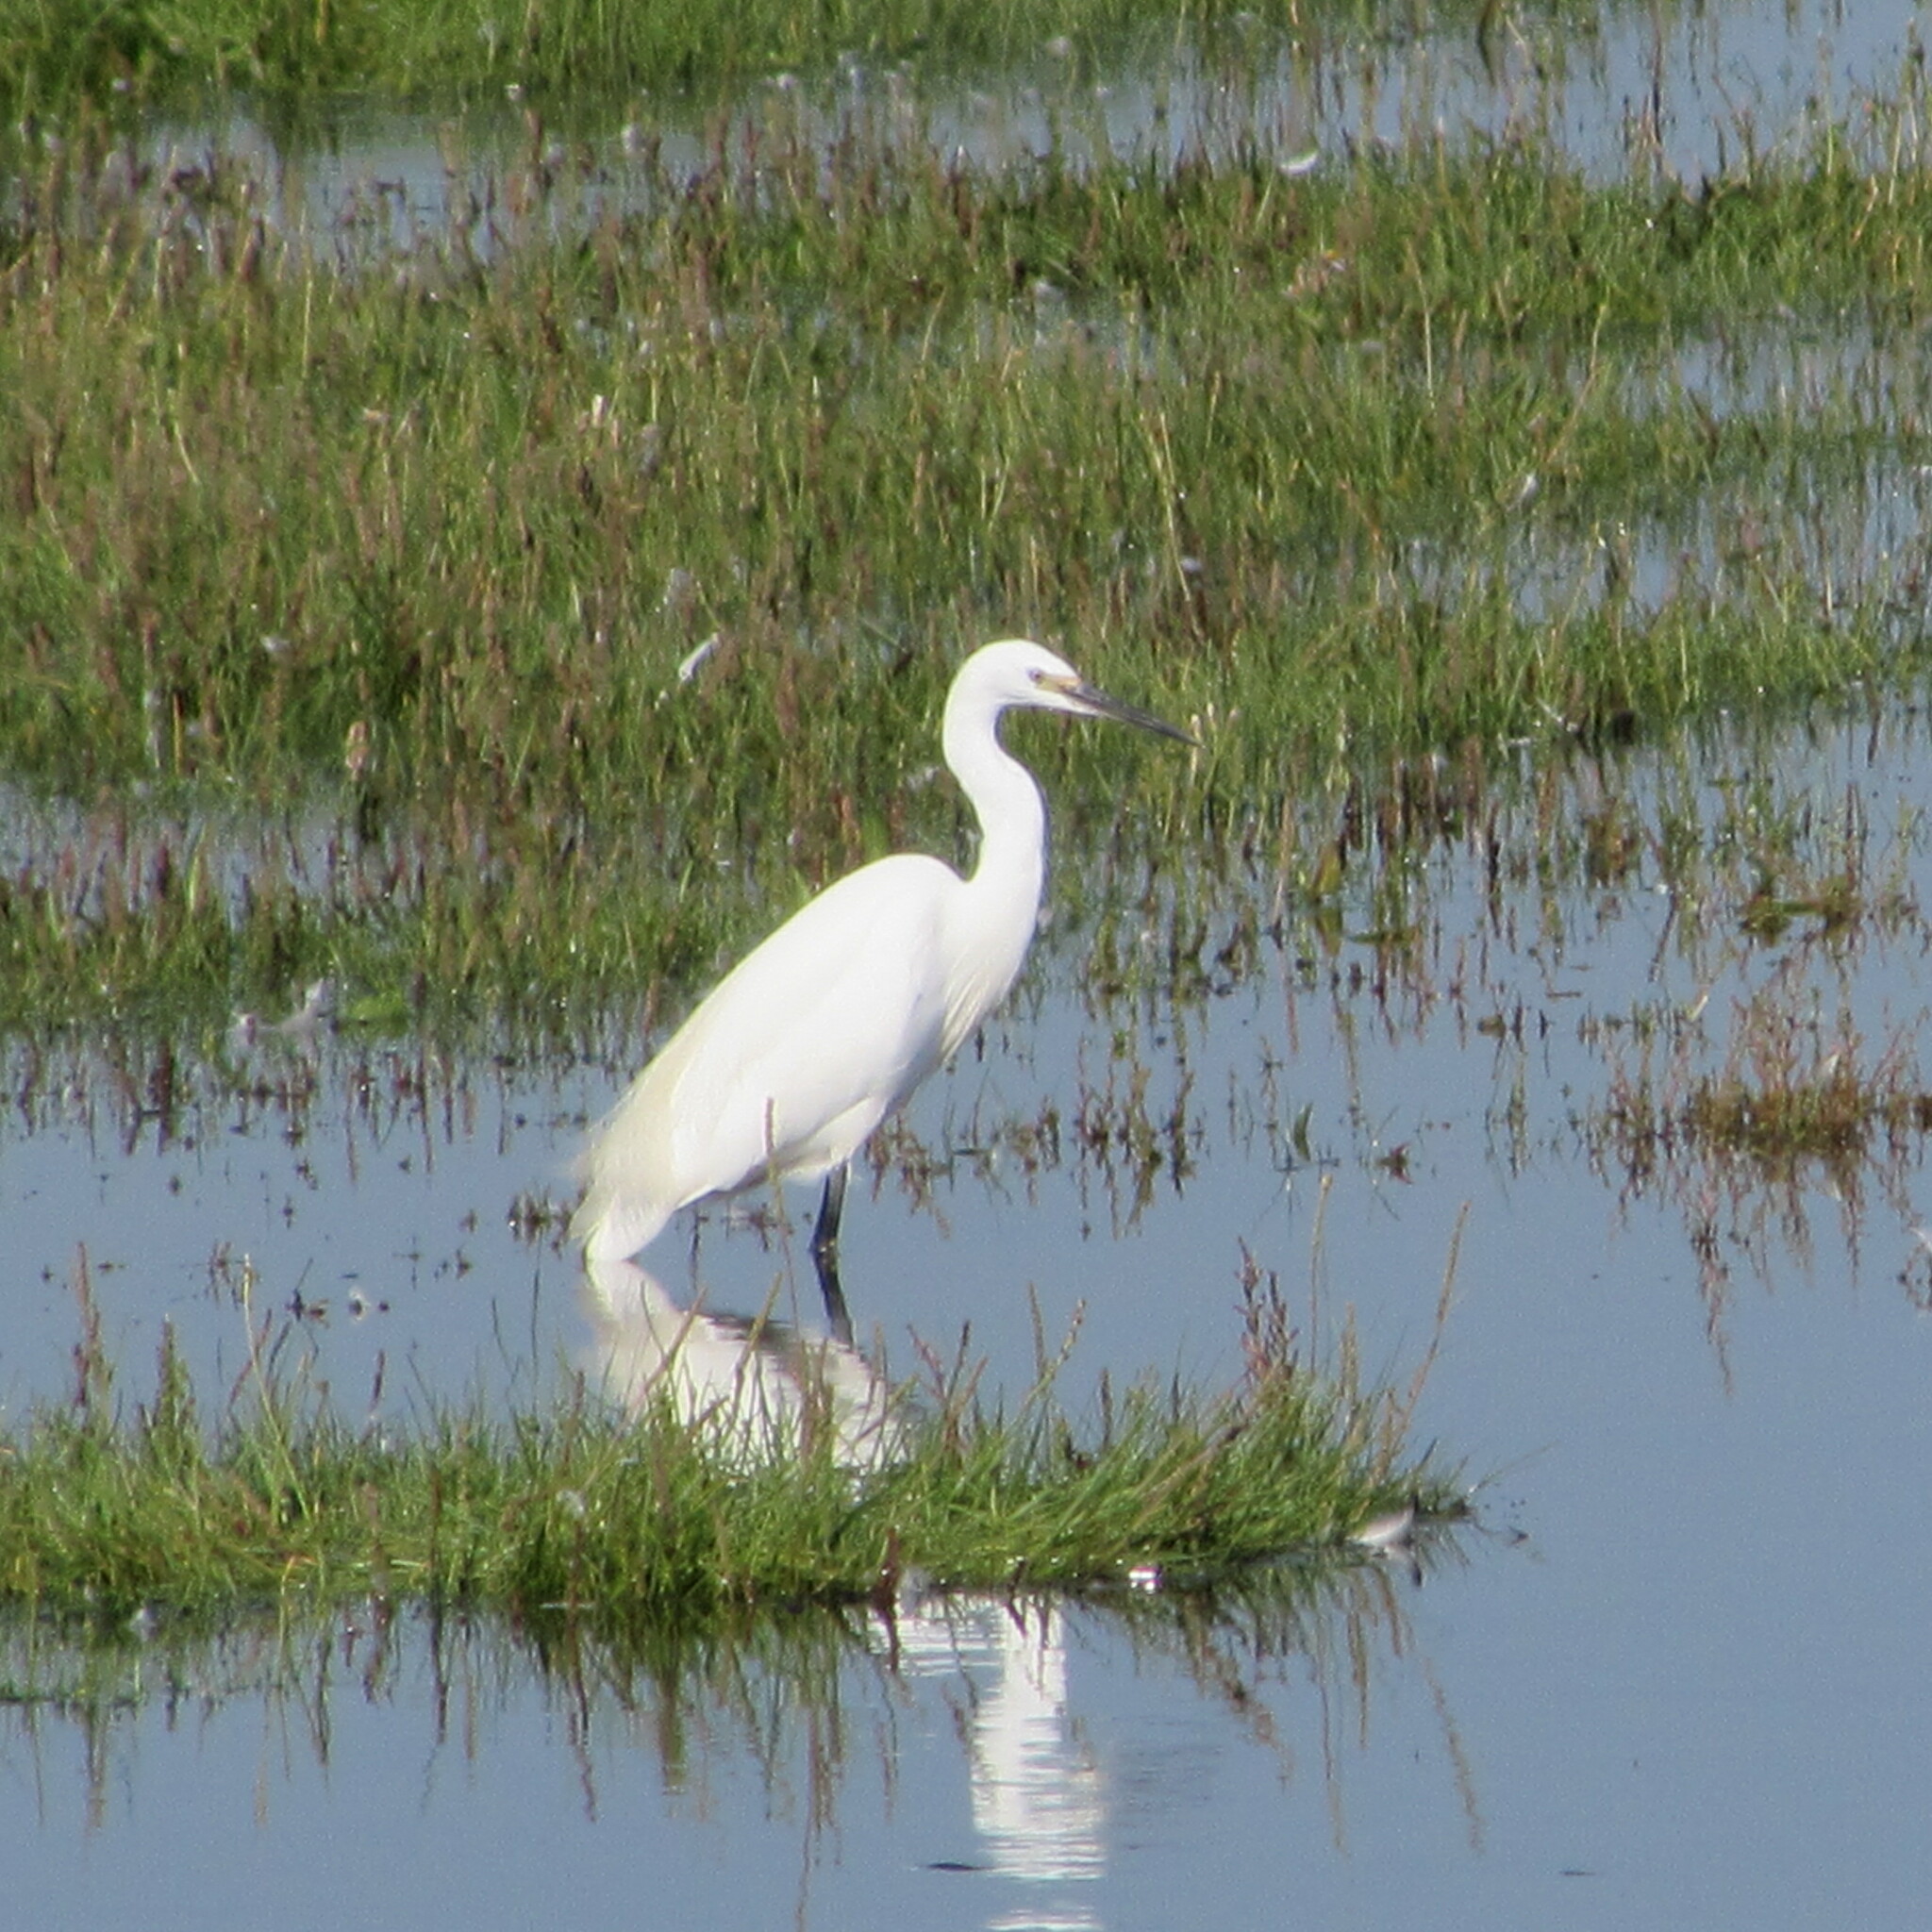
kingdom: Animalia
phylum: Chordata
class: Aves
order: Pelecaniformes
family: Ardeidae
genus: Egretta
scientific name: Egretta garzetta
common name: Little egret
